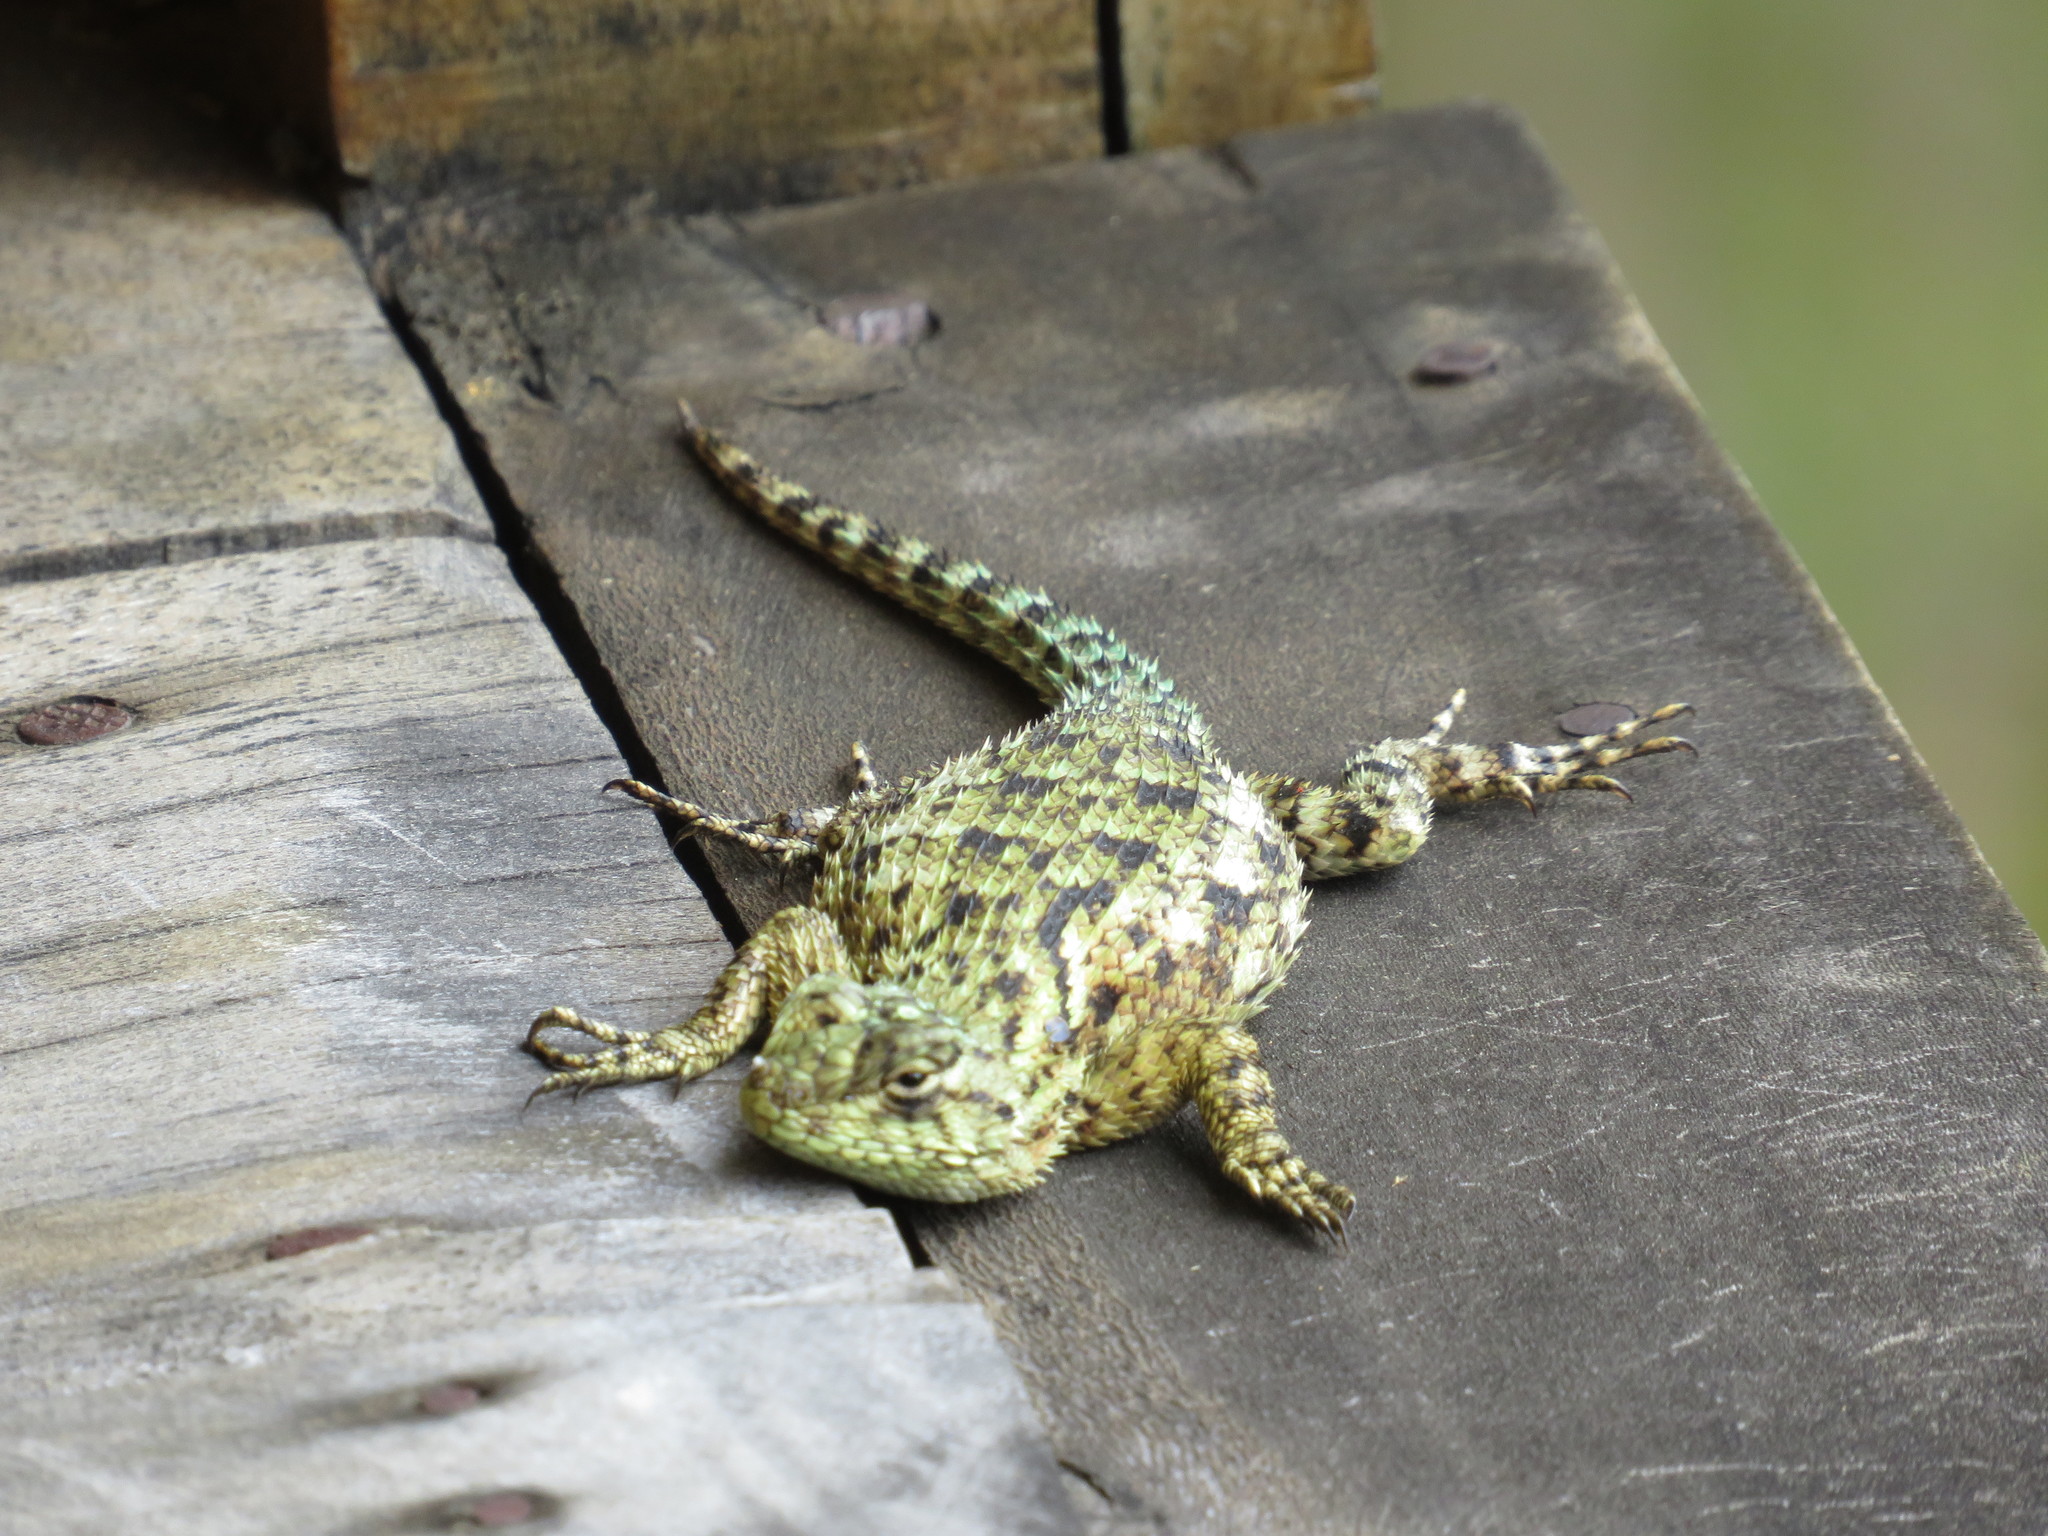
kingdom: Animalia
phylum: Chordata
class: Squamata
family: Phrynosomatidae
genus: Sceloporus
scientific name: Sceloporus malachiticus
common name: Green spiny lizard
